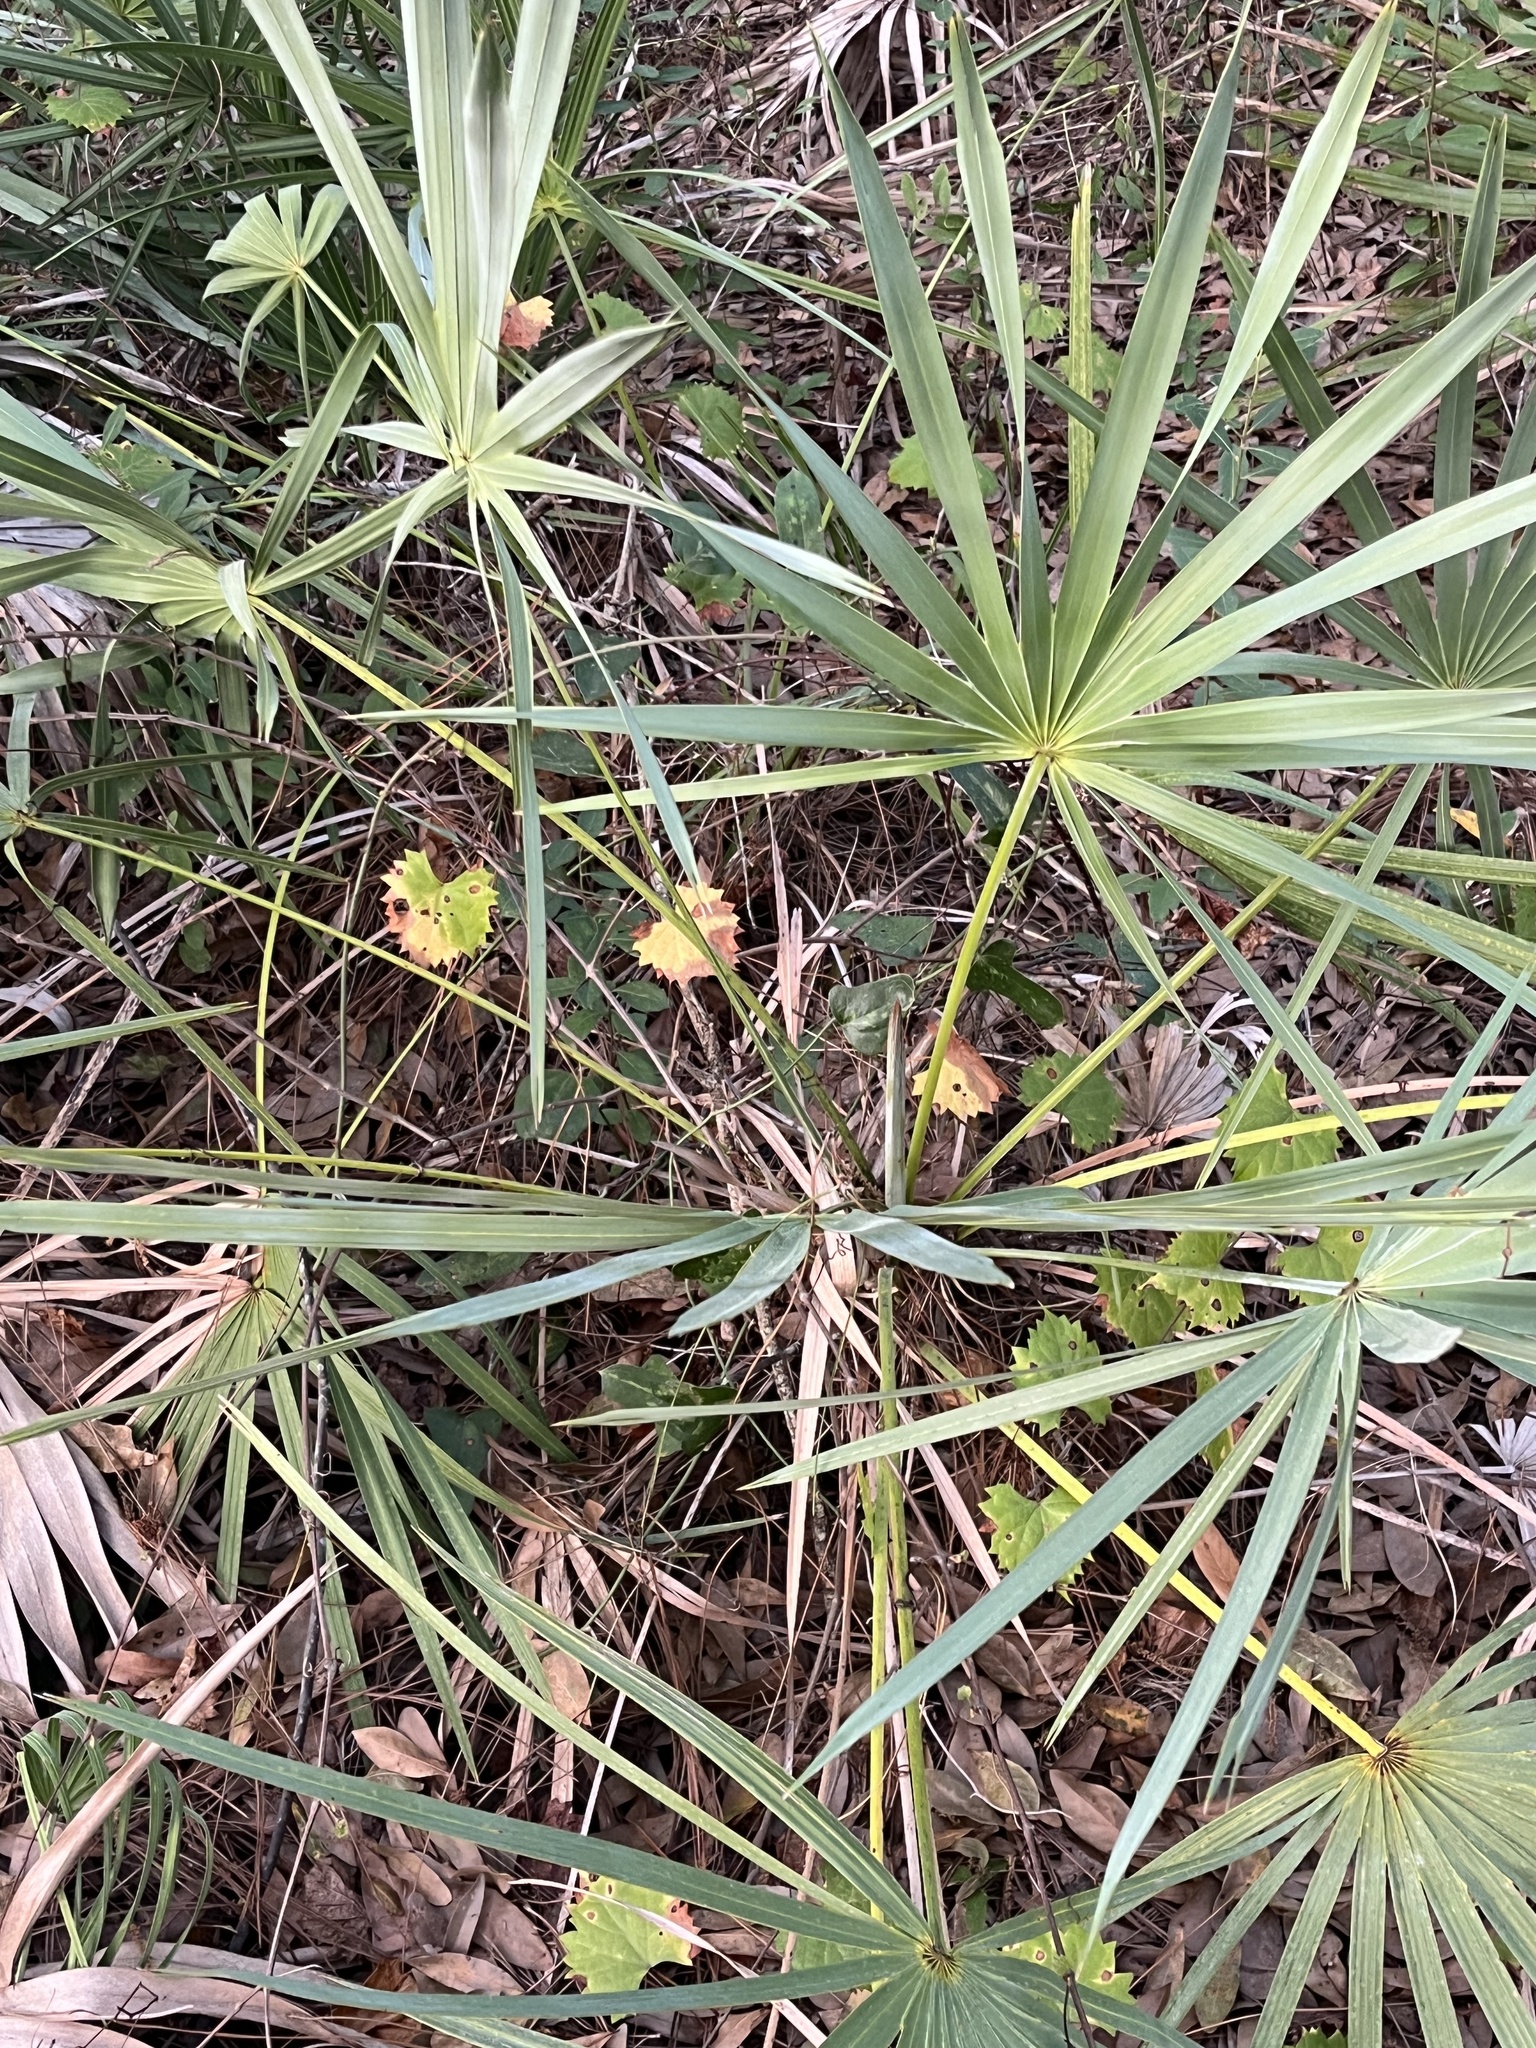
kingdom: Plantae
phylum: Tracheophyta
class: Liliopsida
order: Arecales
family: Arecaceae
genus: Serenoa
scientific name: Serenoa repens
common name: Saw-palmetto
